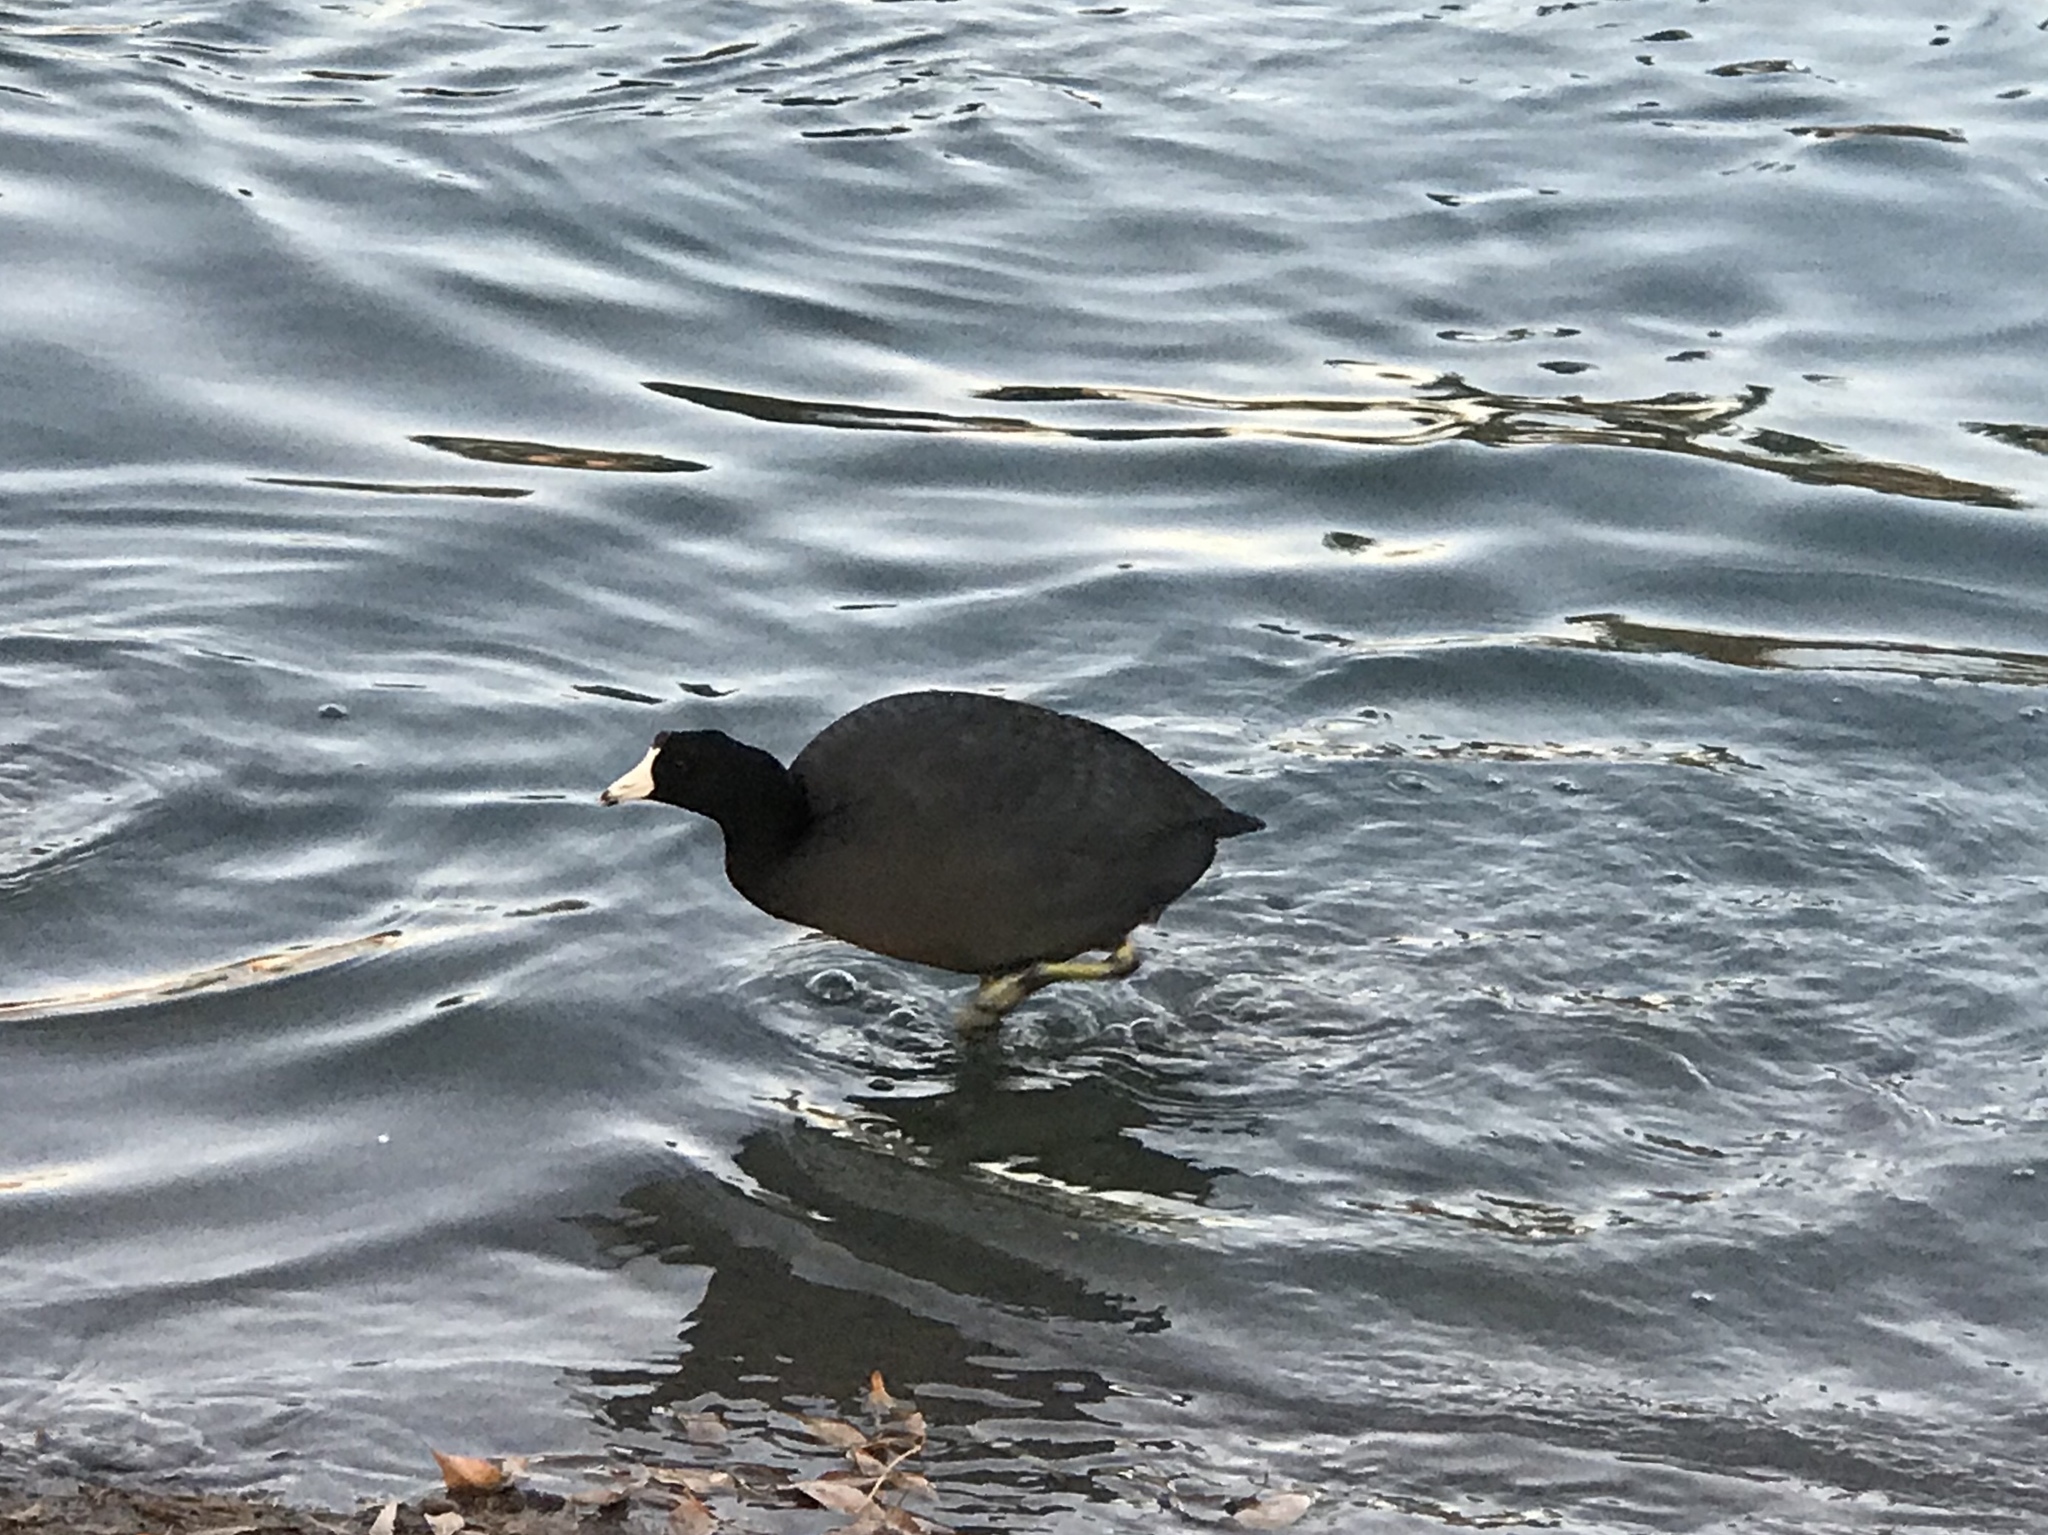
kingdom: Animalia
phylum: Chordata
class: Aves
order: Gruiformes
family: Rallidae
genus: Fulica
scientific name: Fulica americana
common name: American coot
